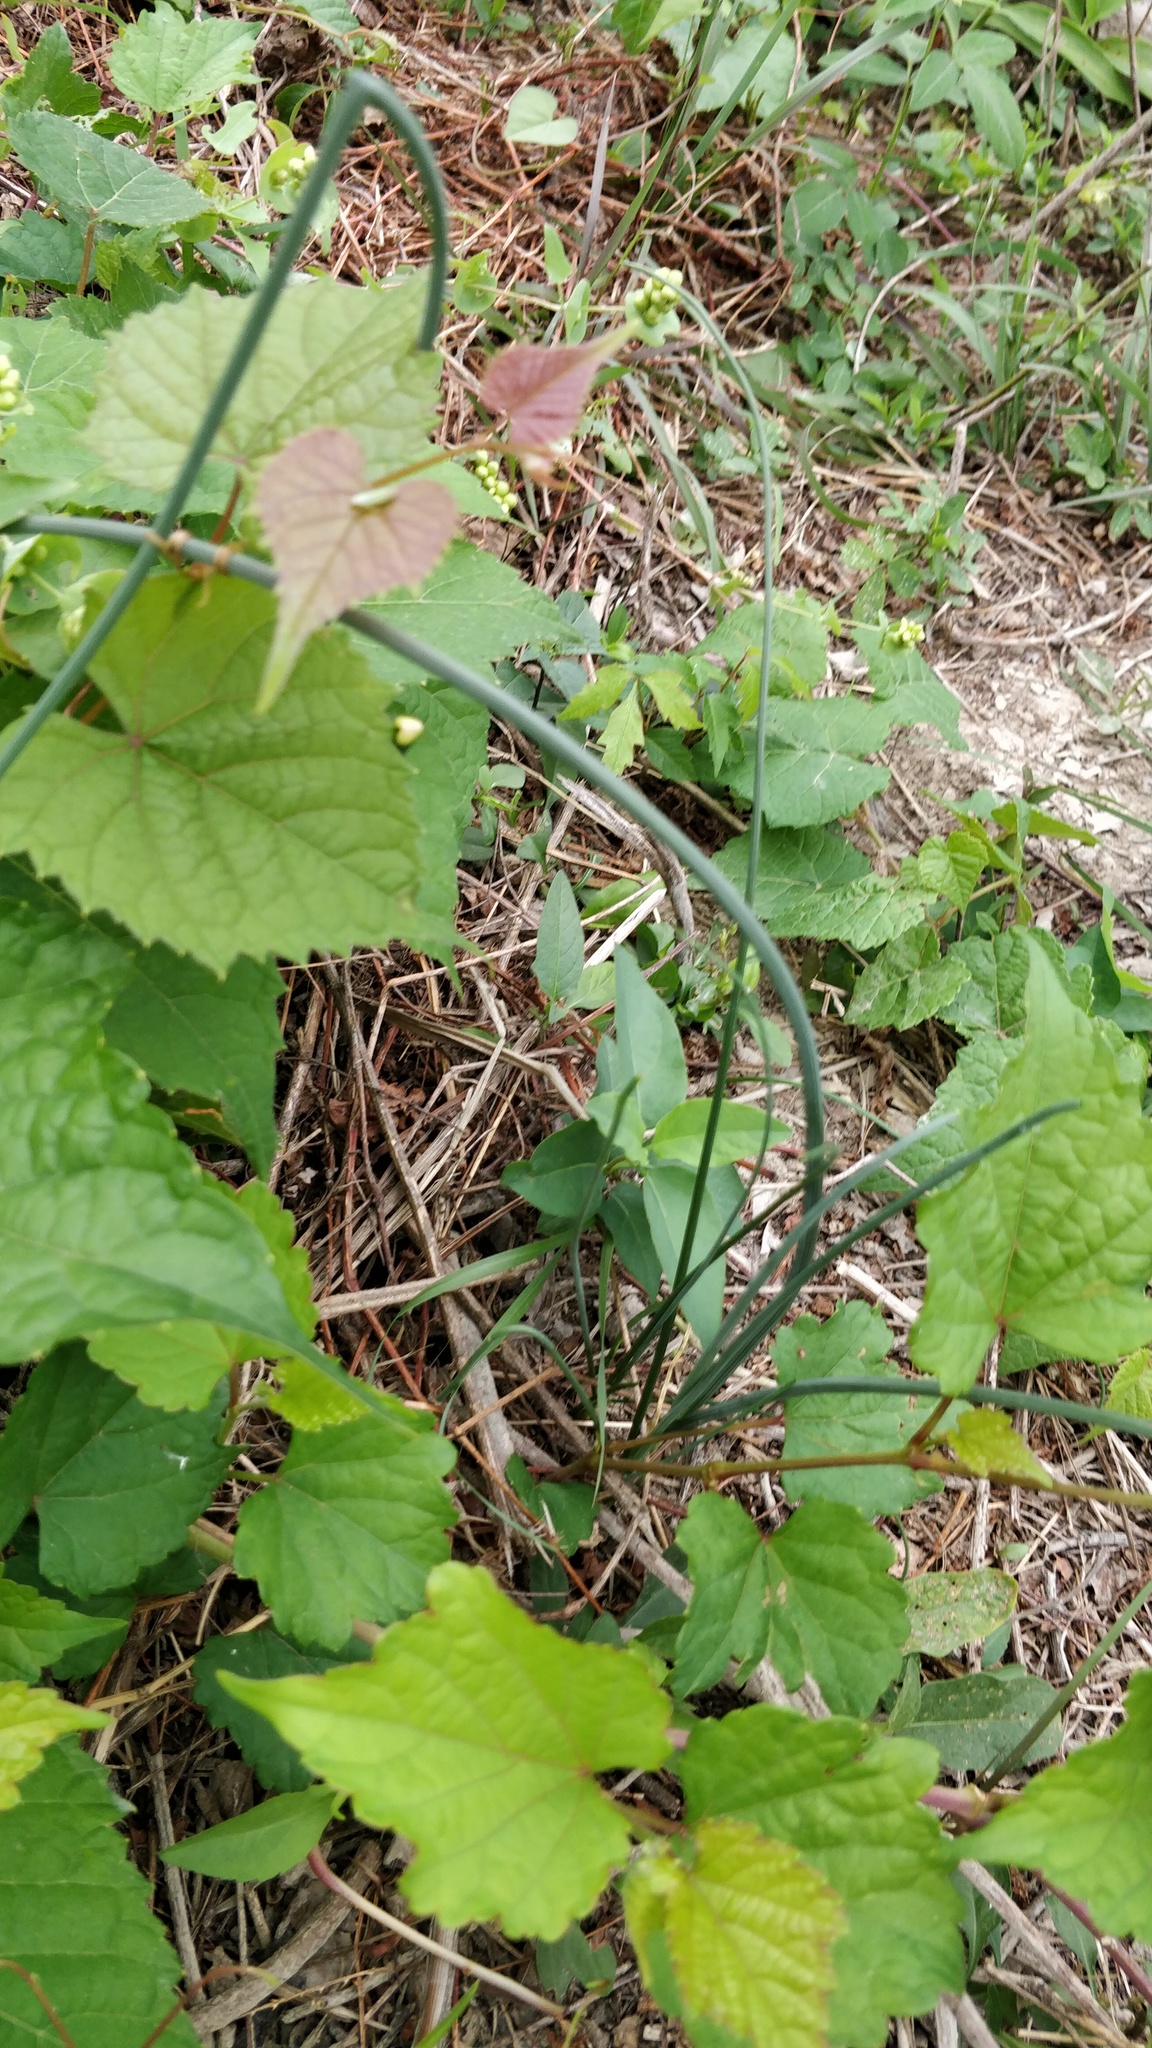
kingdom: Plantae
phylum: Tracheophyta
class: Liliopsida
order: Asparagales
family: Amaryllidaceae
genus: Allium
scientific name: Allium vineale
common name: Crow garlic
